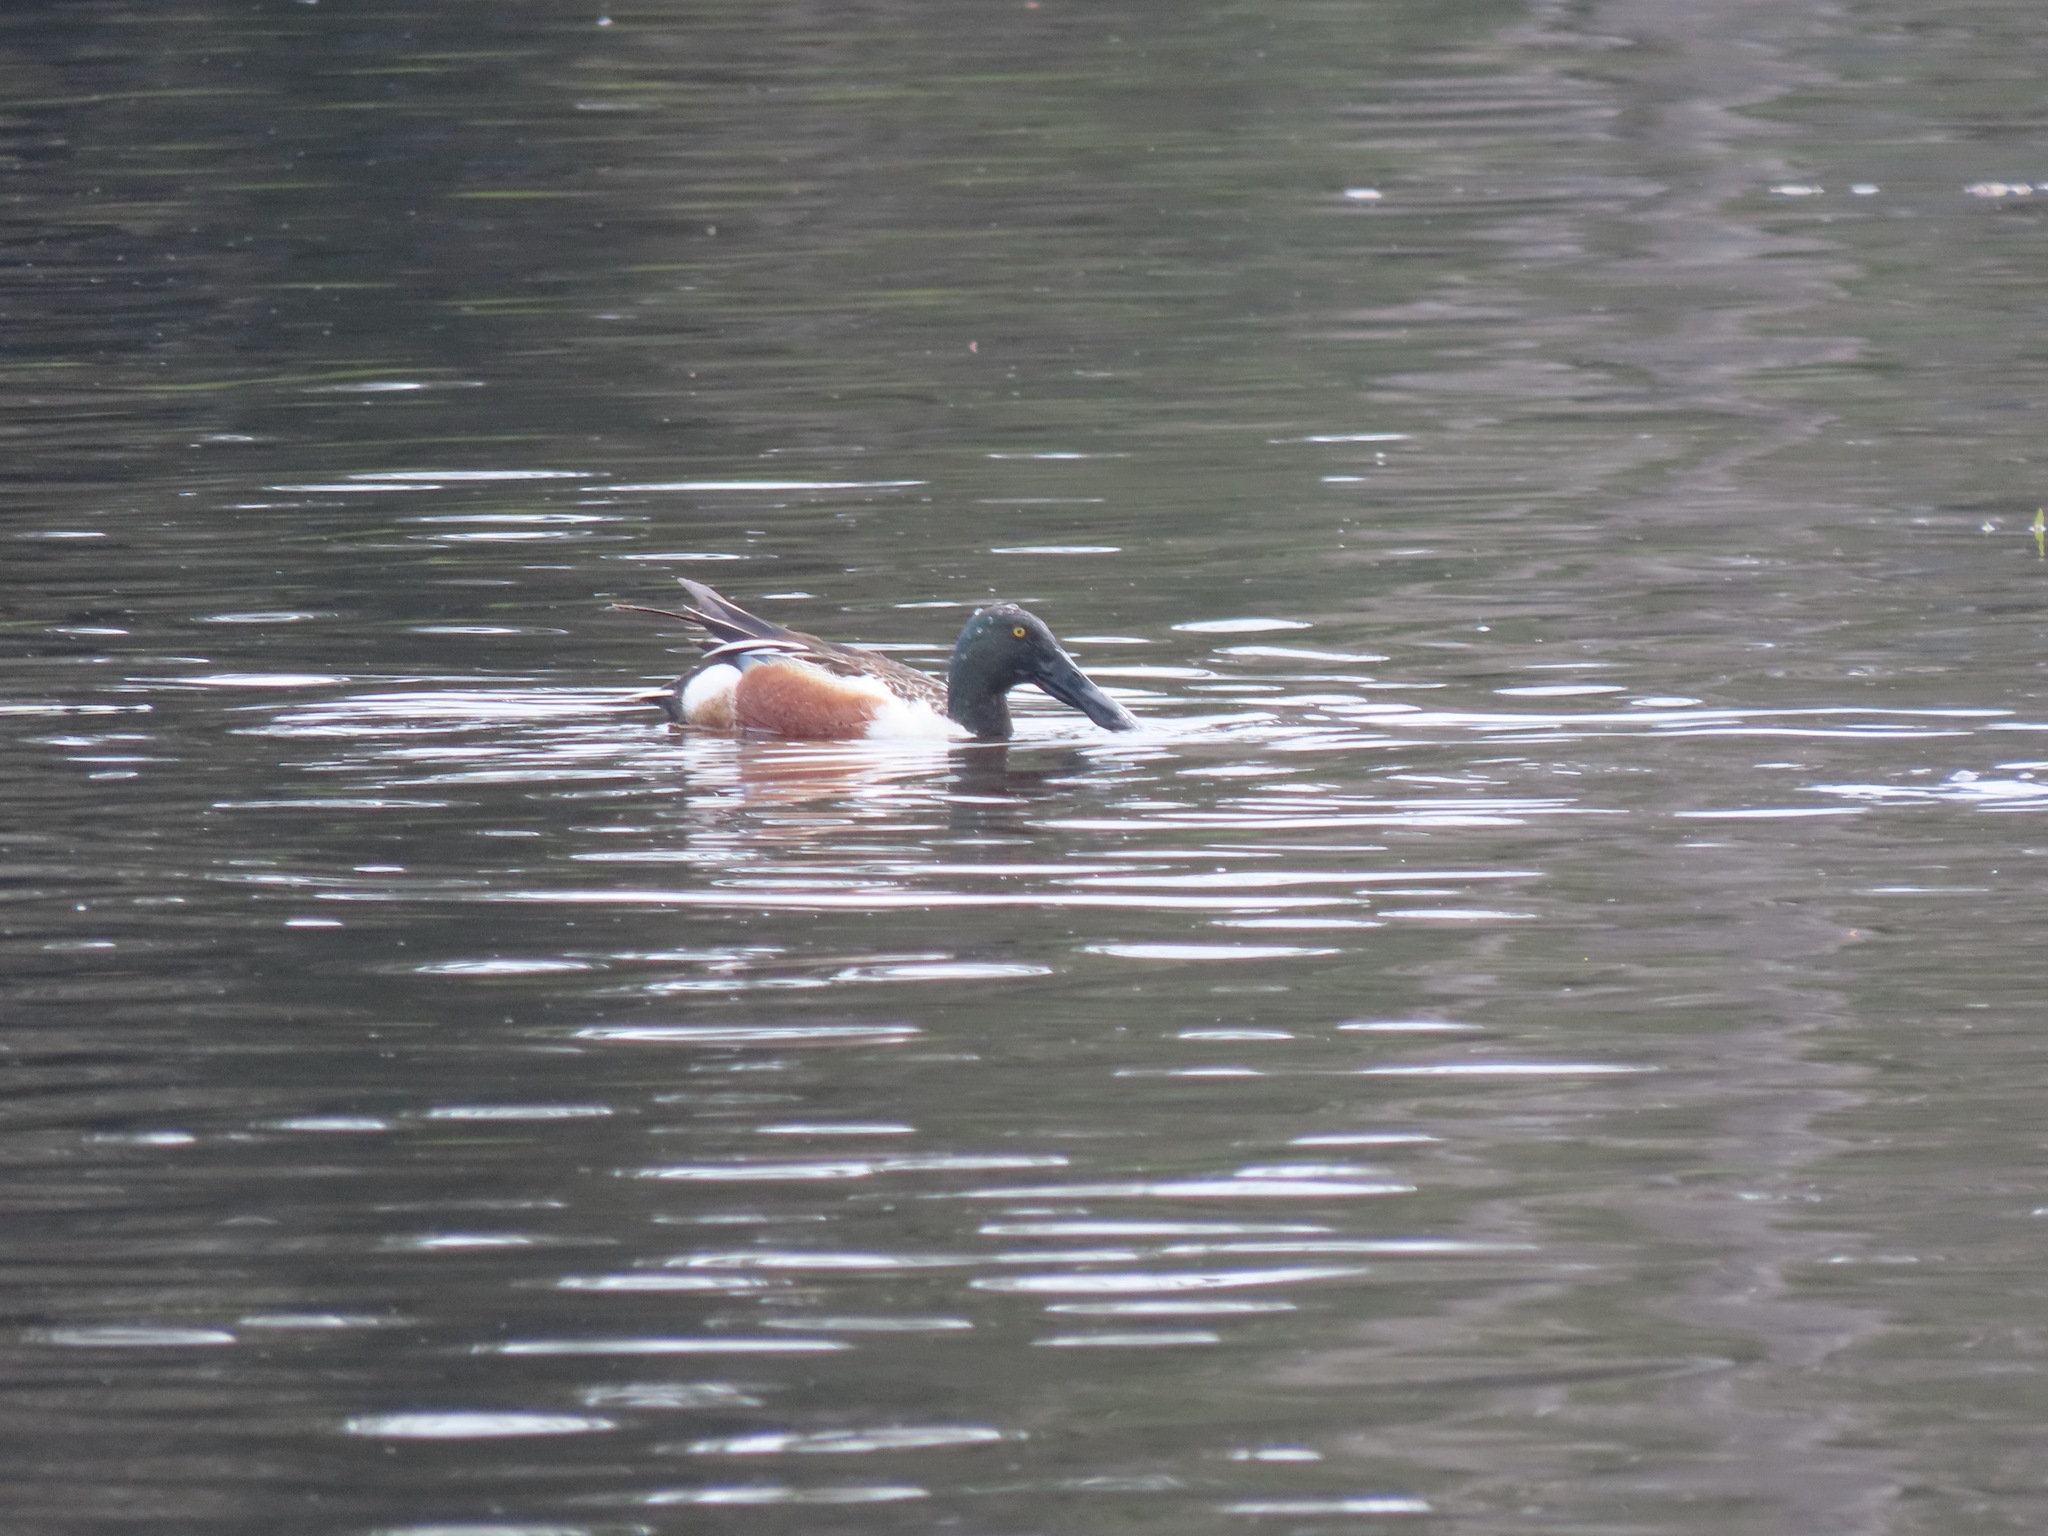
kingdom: Animalia
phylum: Chordata
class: Aves
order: Anseriformes
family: Anatidae
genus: Spatula
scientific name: Spatula clypeata
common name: Northern shoveler
